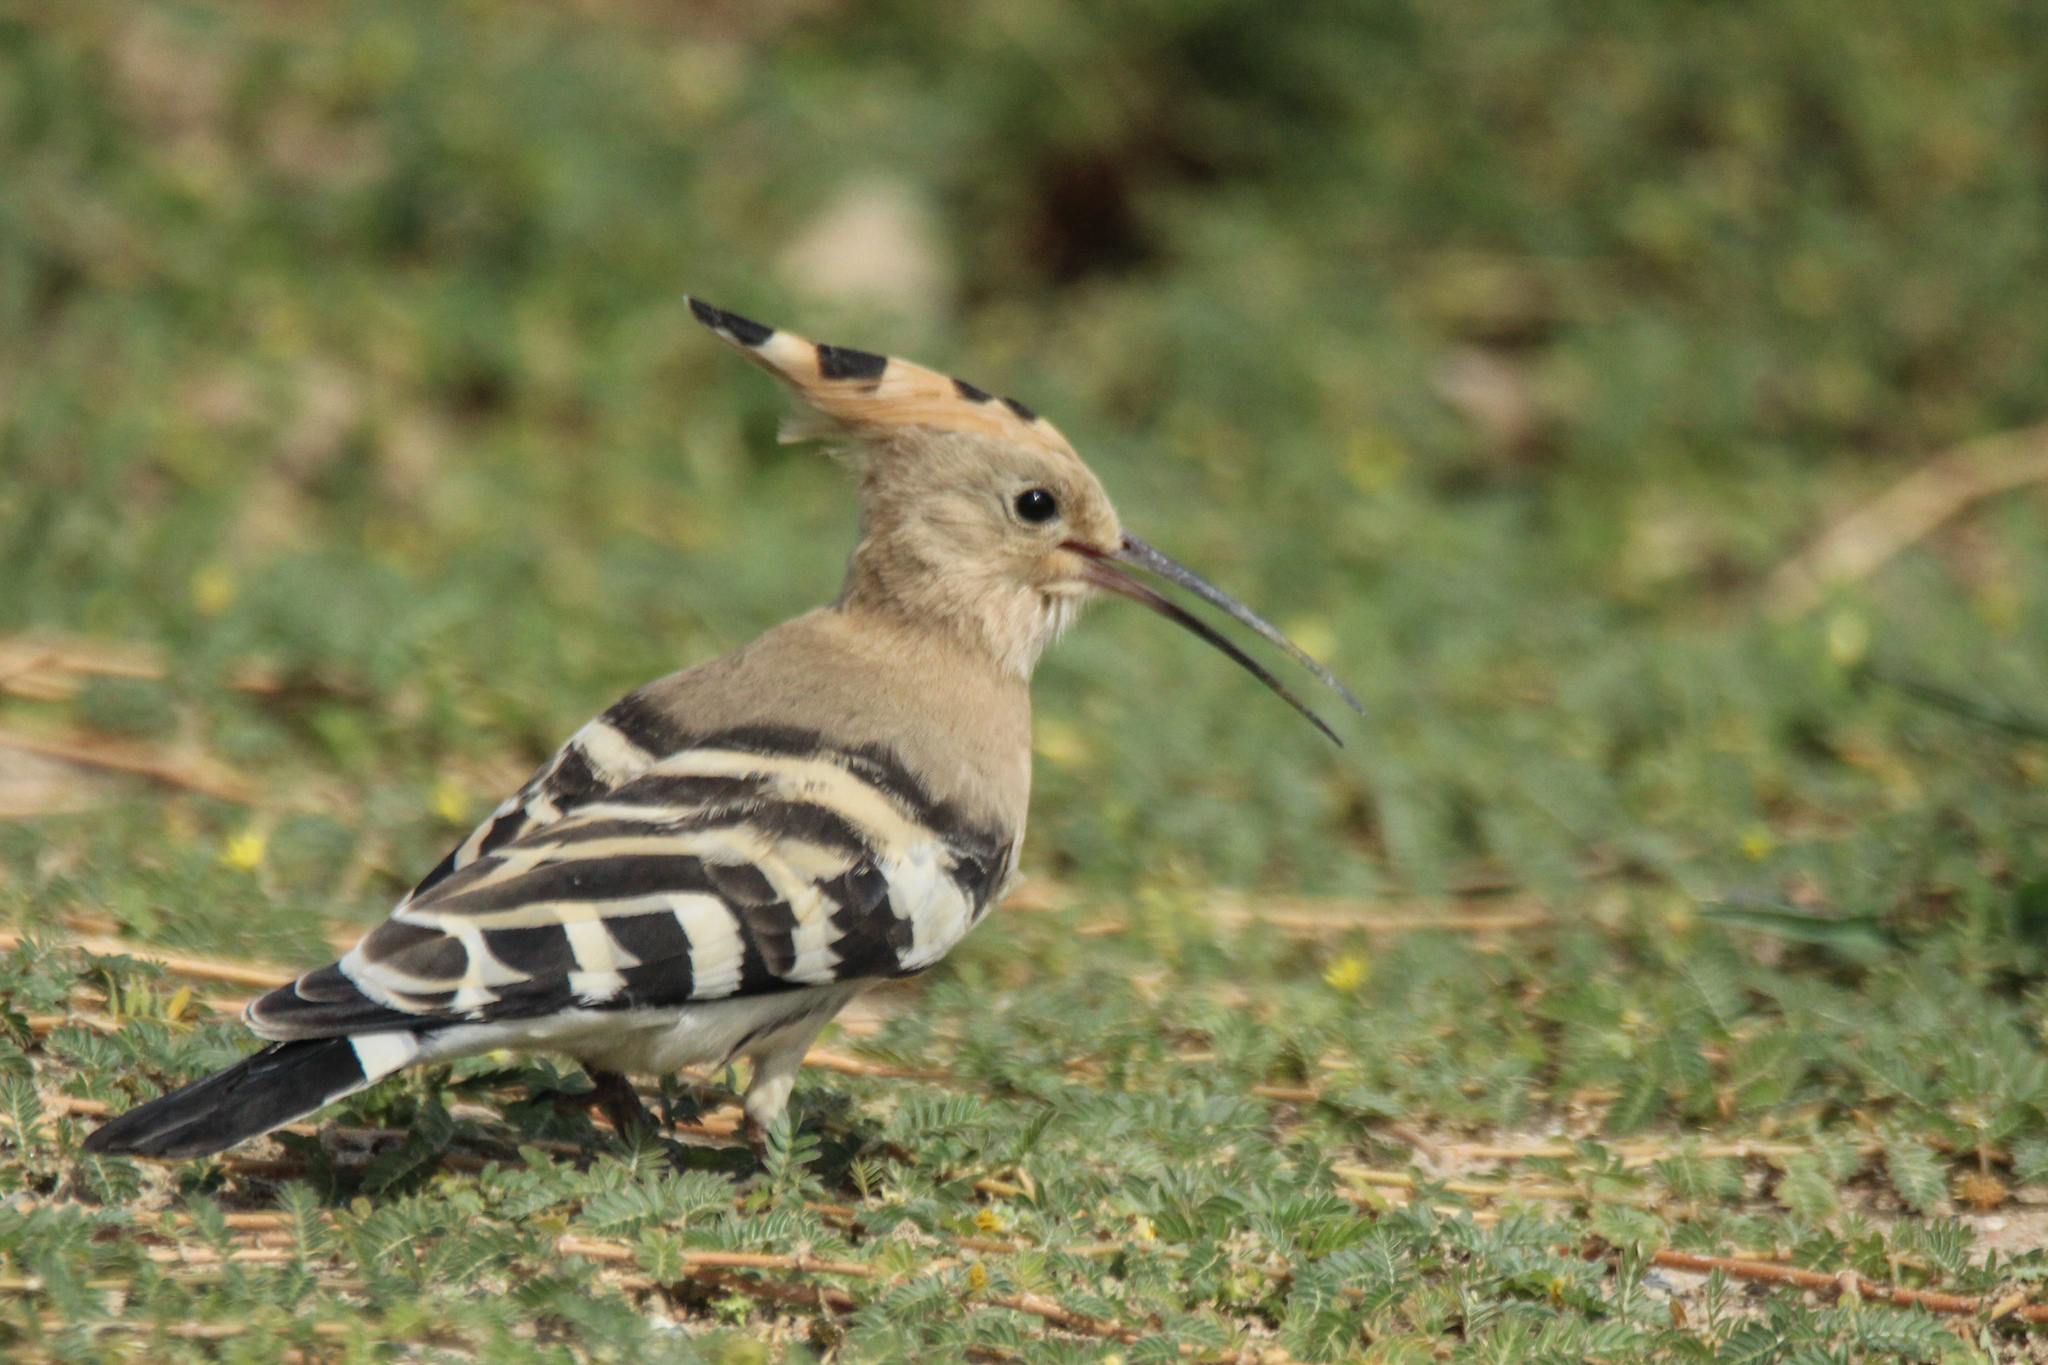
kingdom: Animalia
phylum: Chordata
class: Aves
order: Bucerotiformes
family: Upupidae
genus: Upupa
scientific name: Upupa epops
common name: Eurasian hoopoe
